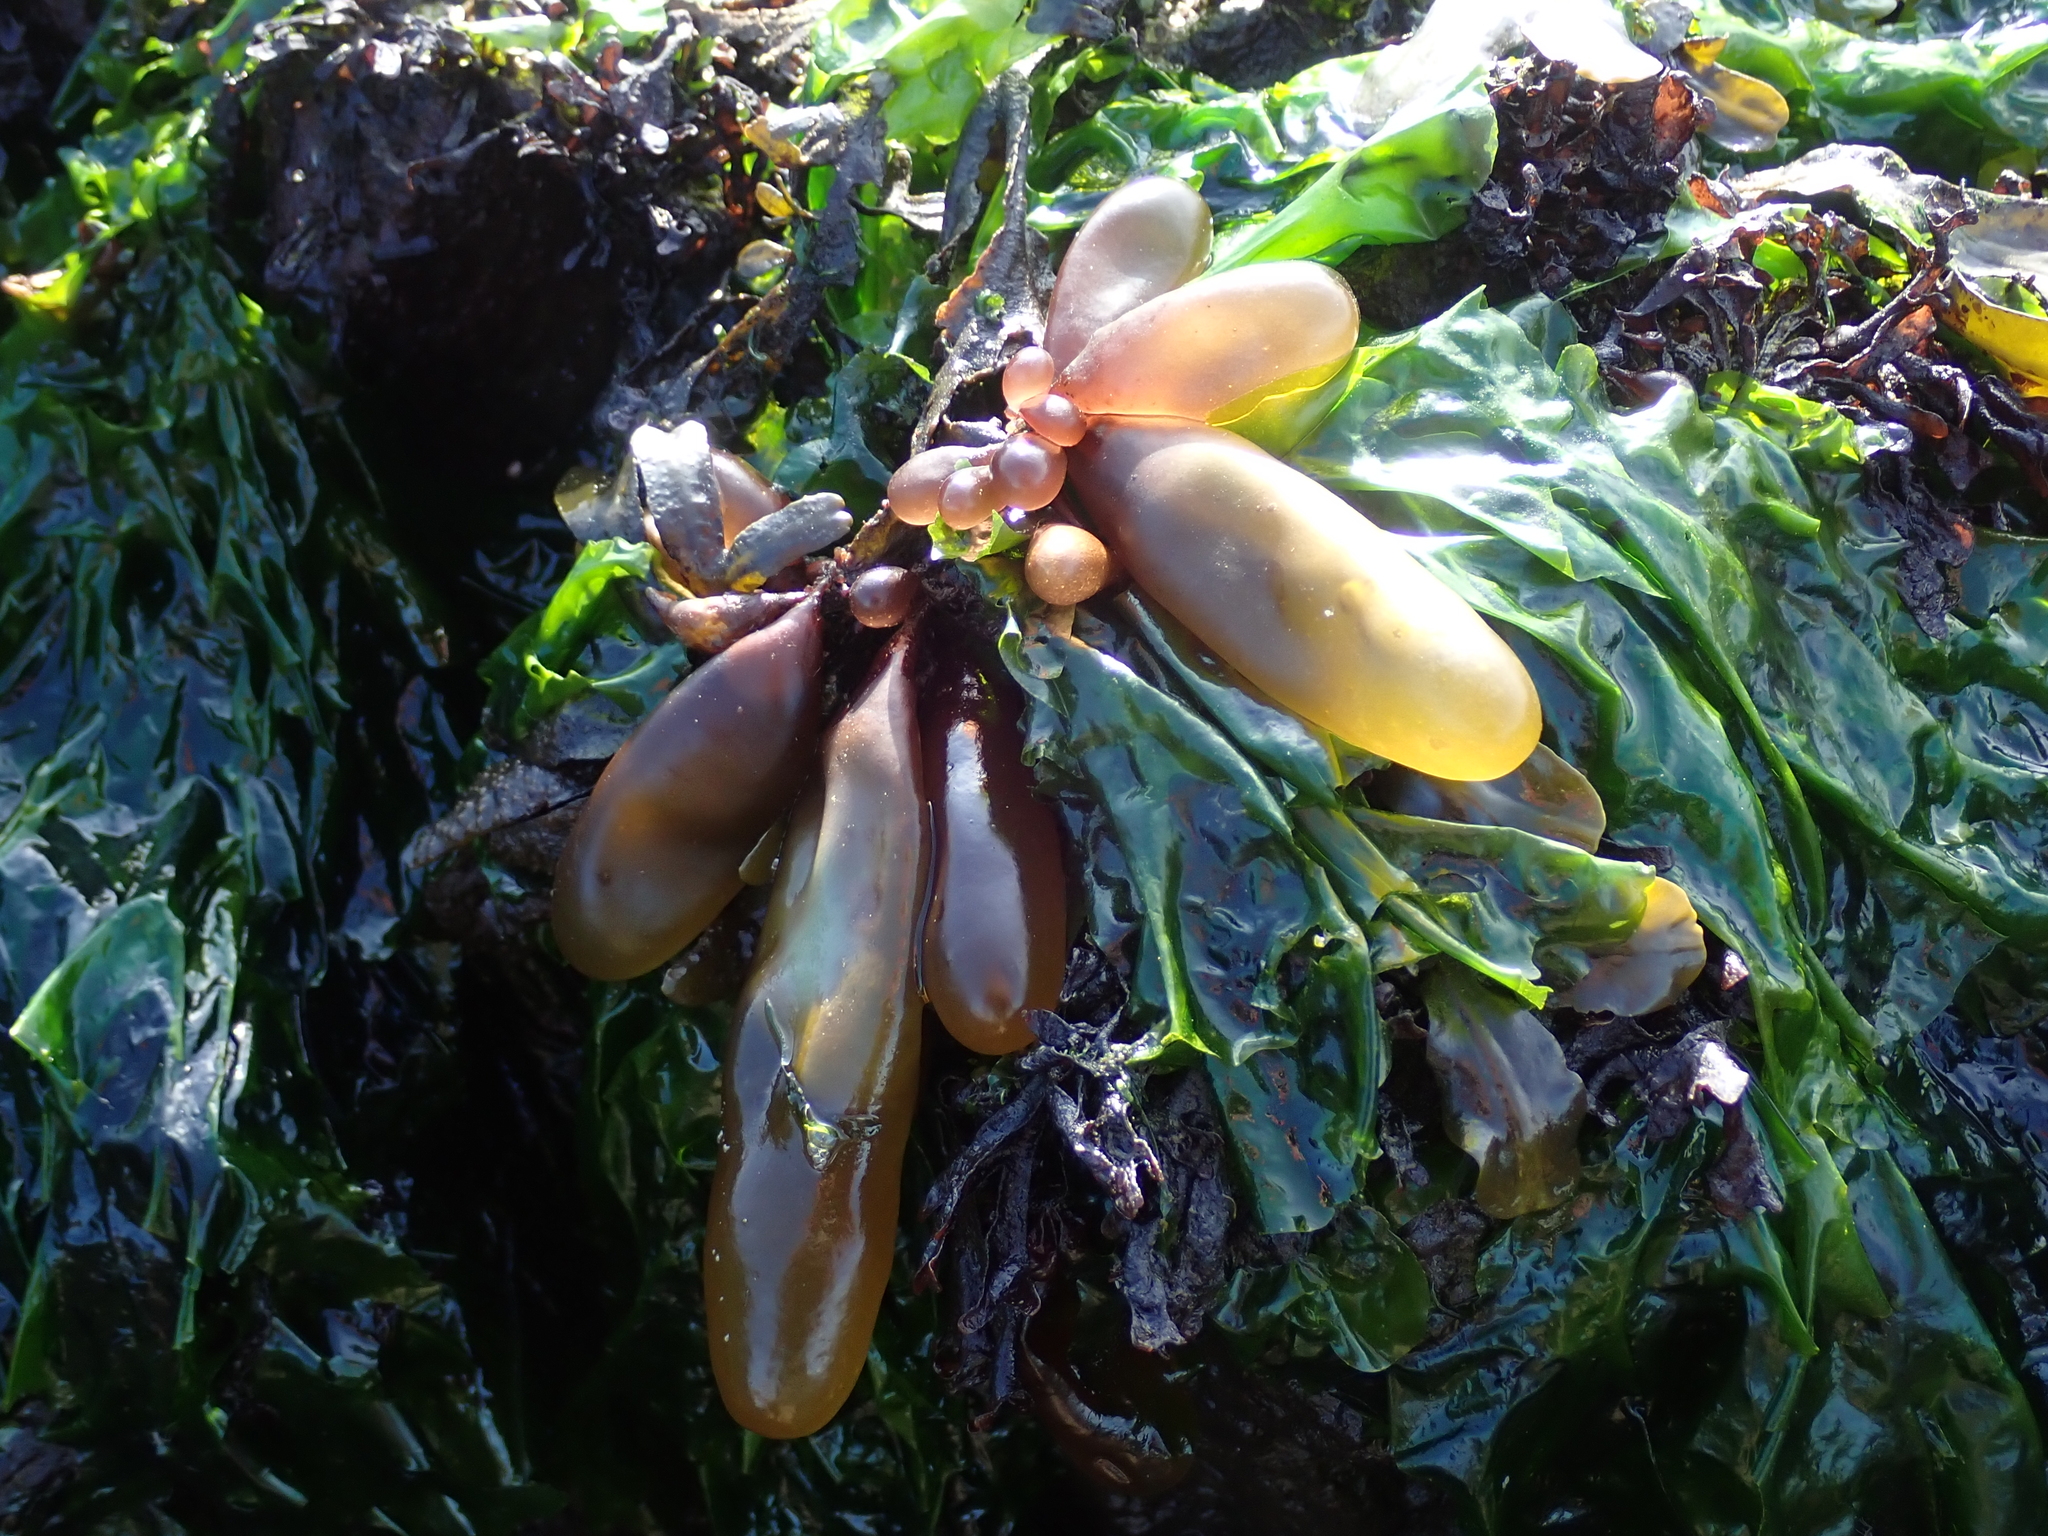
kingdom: Plantae
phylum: Rhodophyta
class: Florideophyceae
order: Palmariales
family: Palmariaceae
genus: Halosaccion
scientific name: Halosaccion glandiforme
